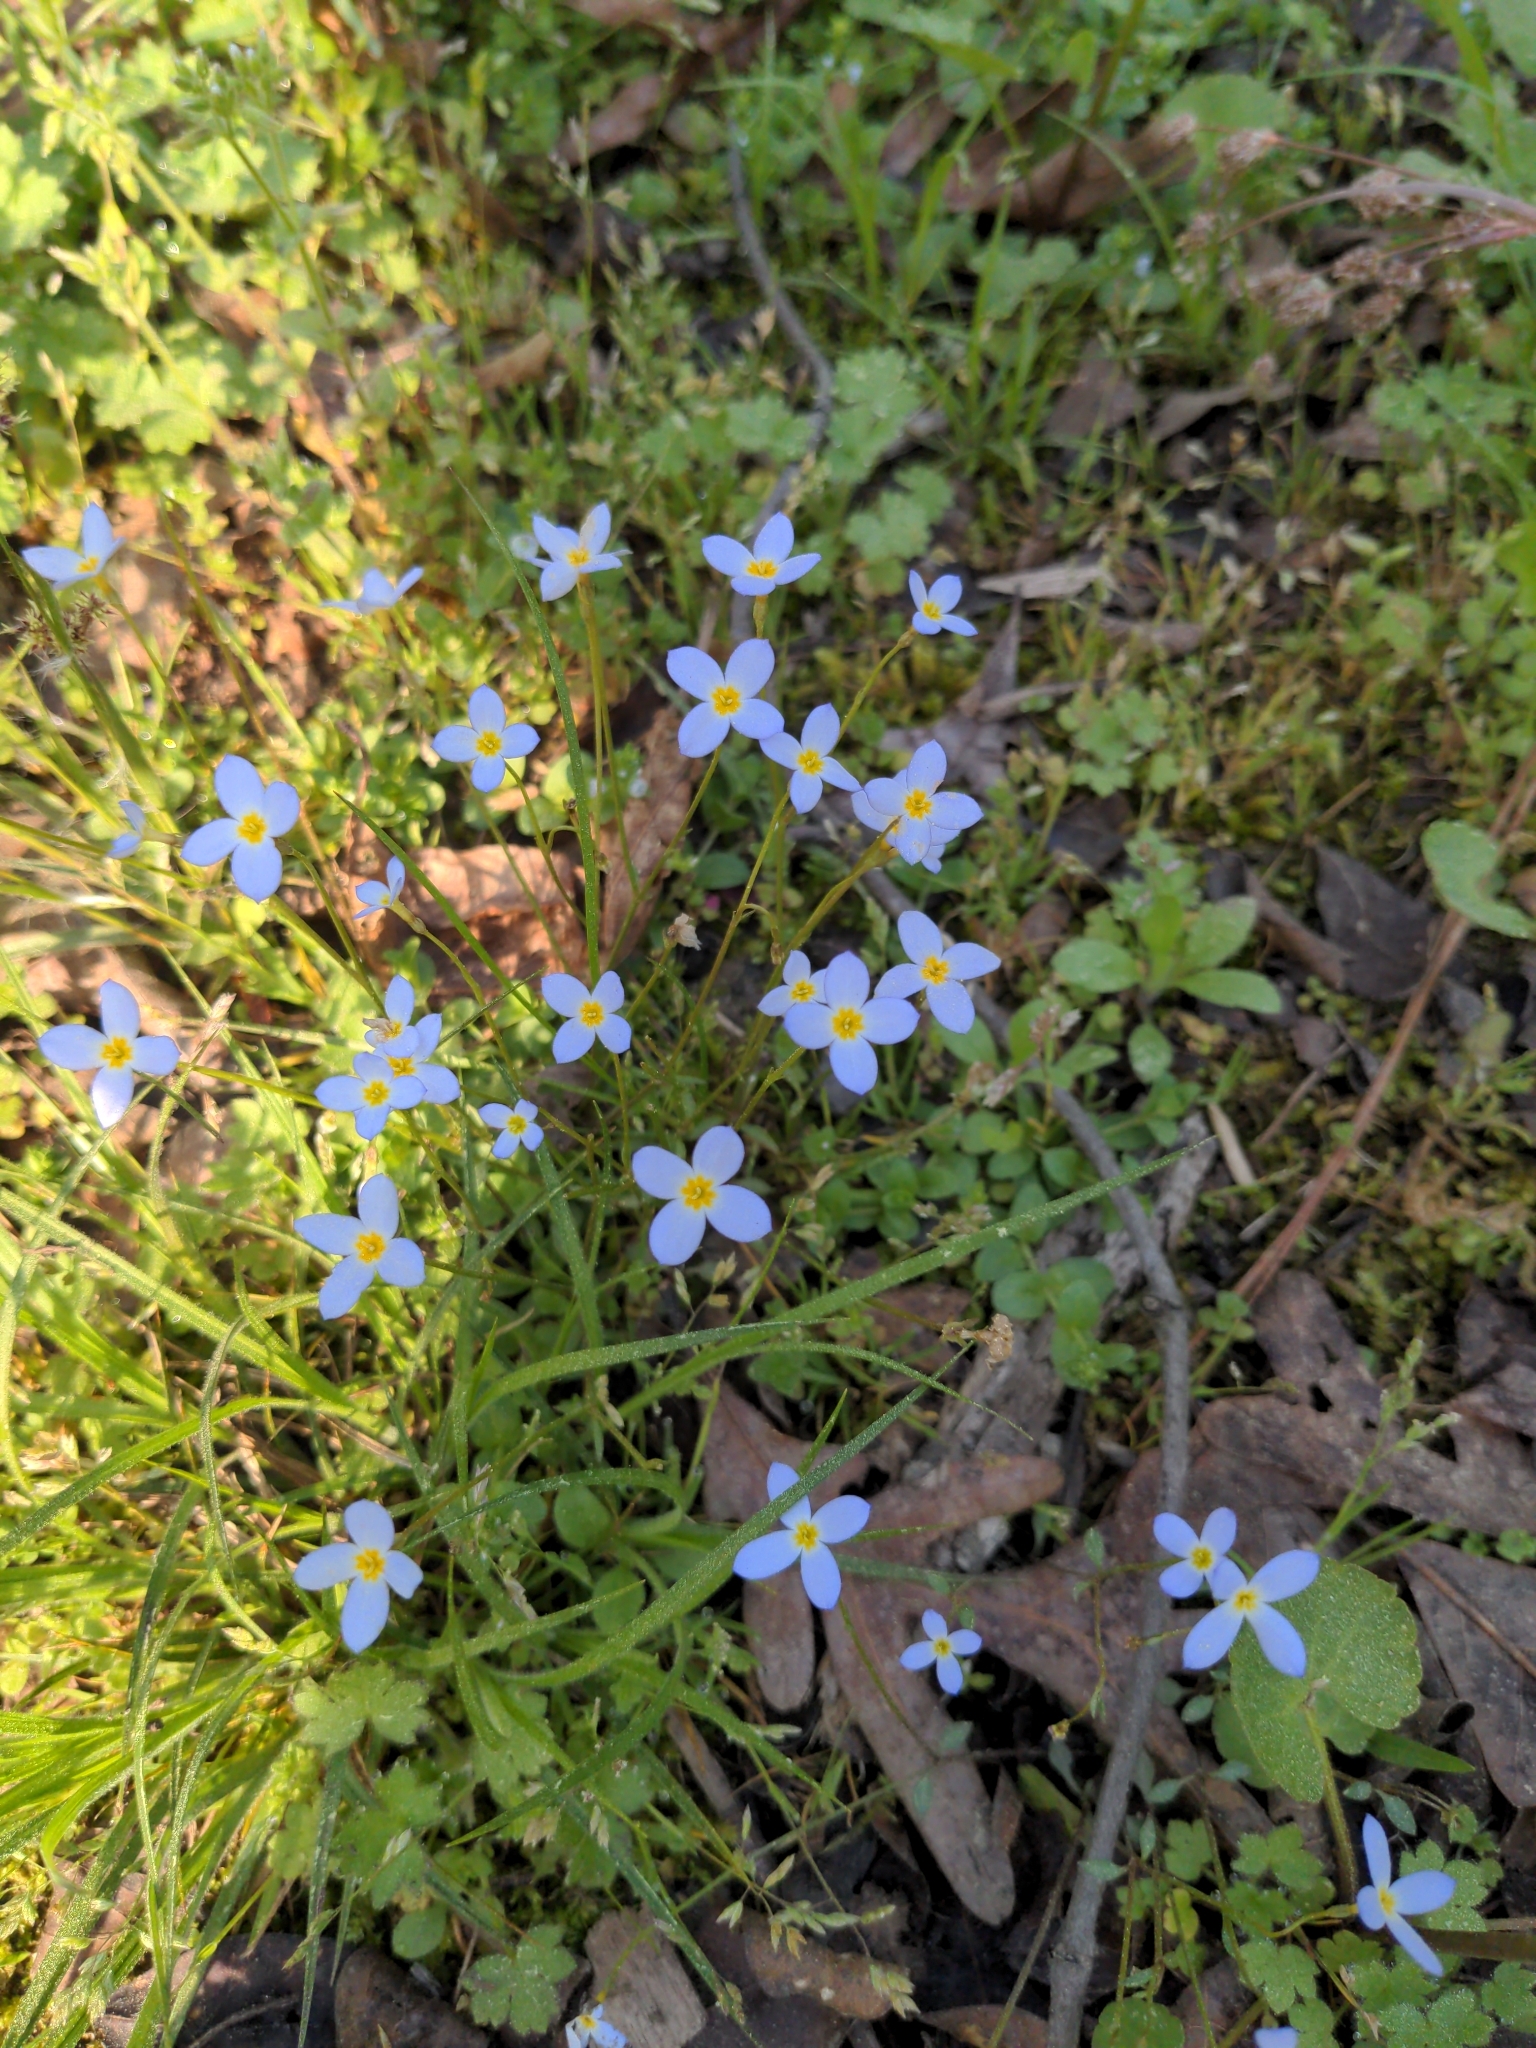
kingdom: Plantae
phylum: Tracheophyta
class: Magnoliopsida
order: Gentianales
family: Rubiaceae
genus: Houstonia
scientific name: Houstonia caerulea
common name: Bluets
